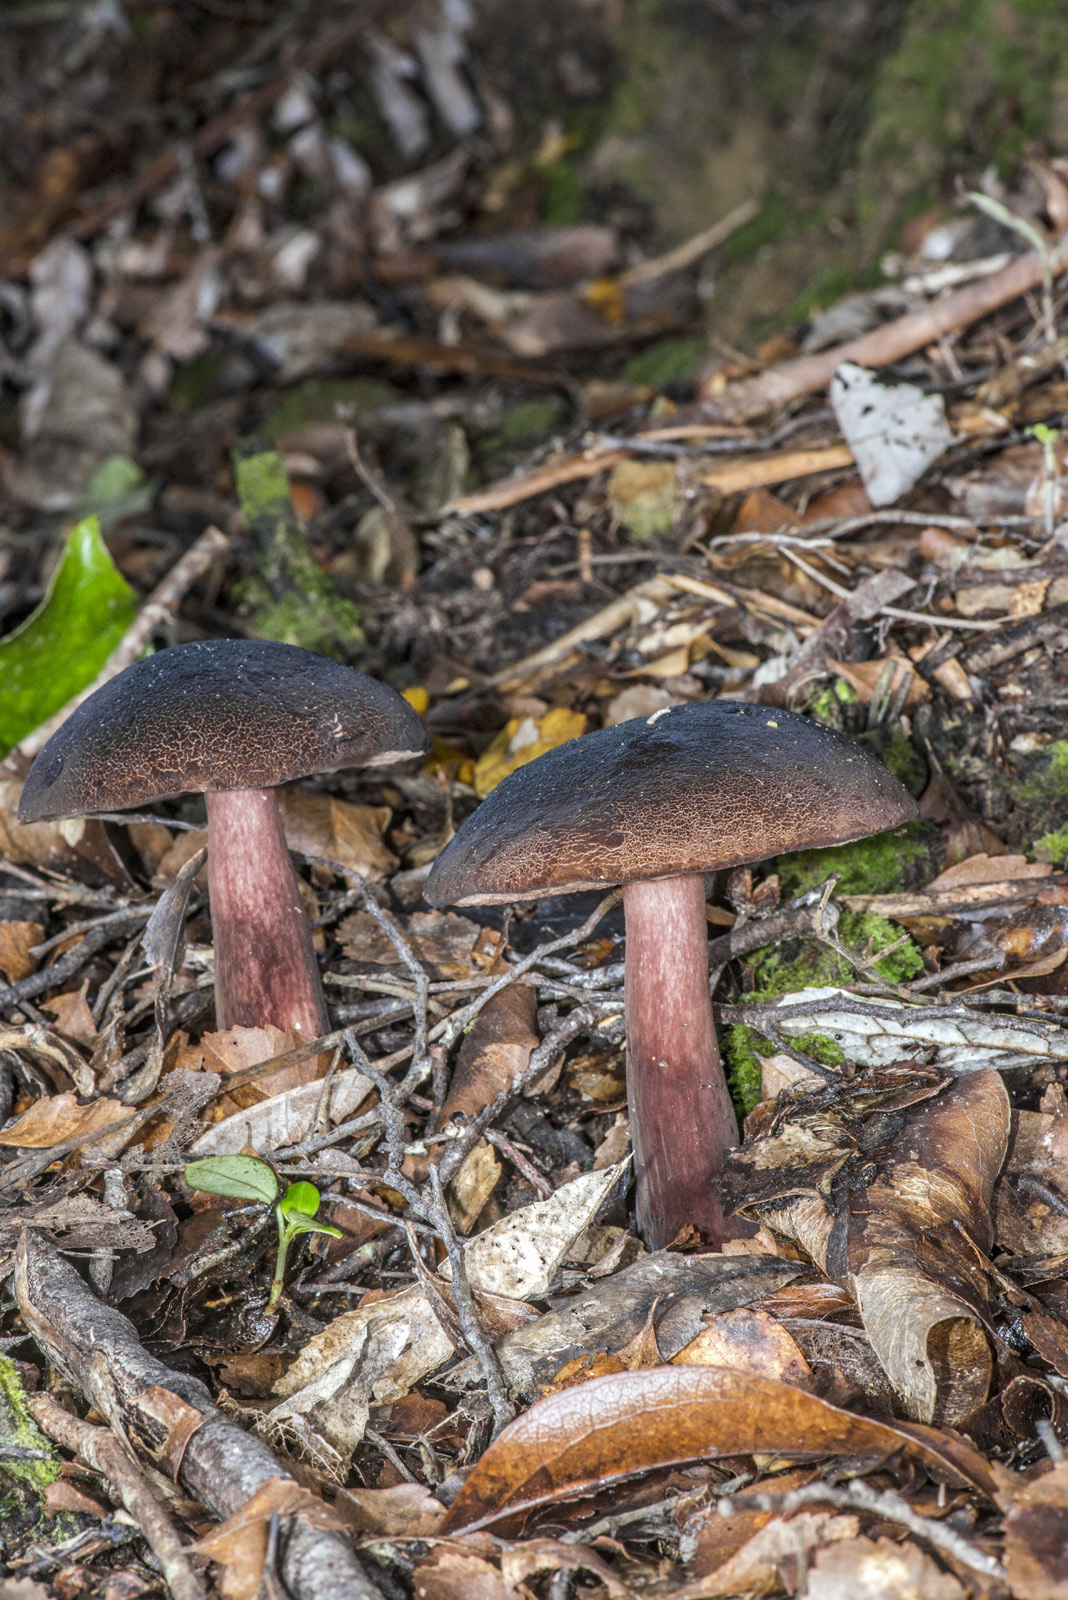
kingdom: Fungi
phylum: Basidiomycota
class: Agaricomycetes
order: Boletales
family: Boletaceae
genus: Porphyrellus
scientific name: Porphyrellus formosus
